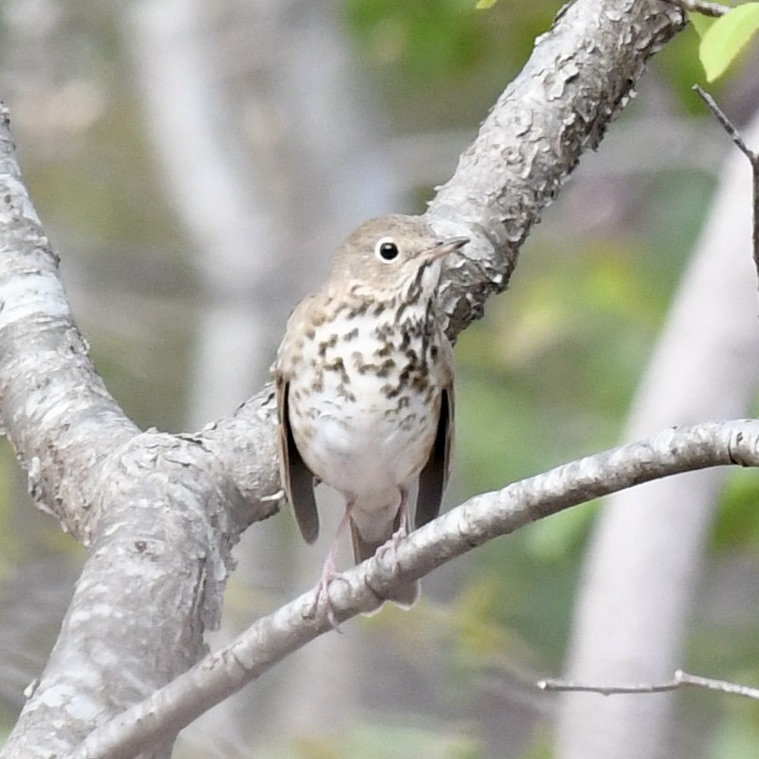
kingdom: Animalia
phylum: Chordata
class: Aves
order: Passeriformes
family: Turdidae
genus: Catharus
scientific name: Catharus guttatus
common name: Hermit thrush
